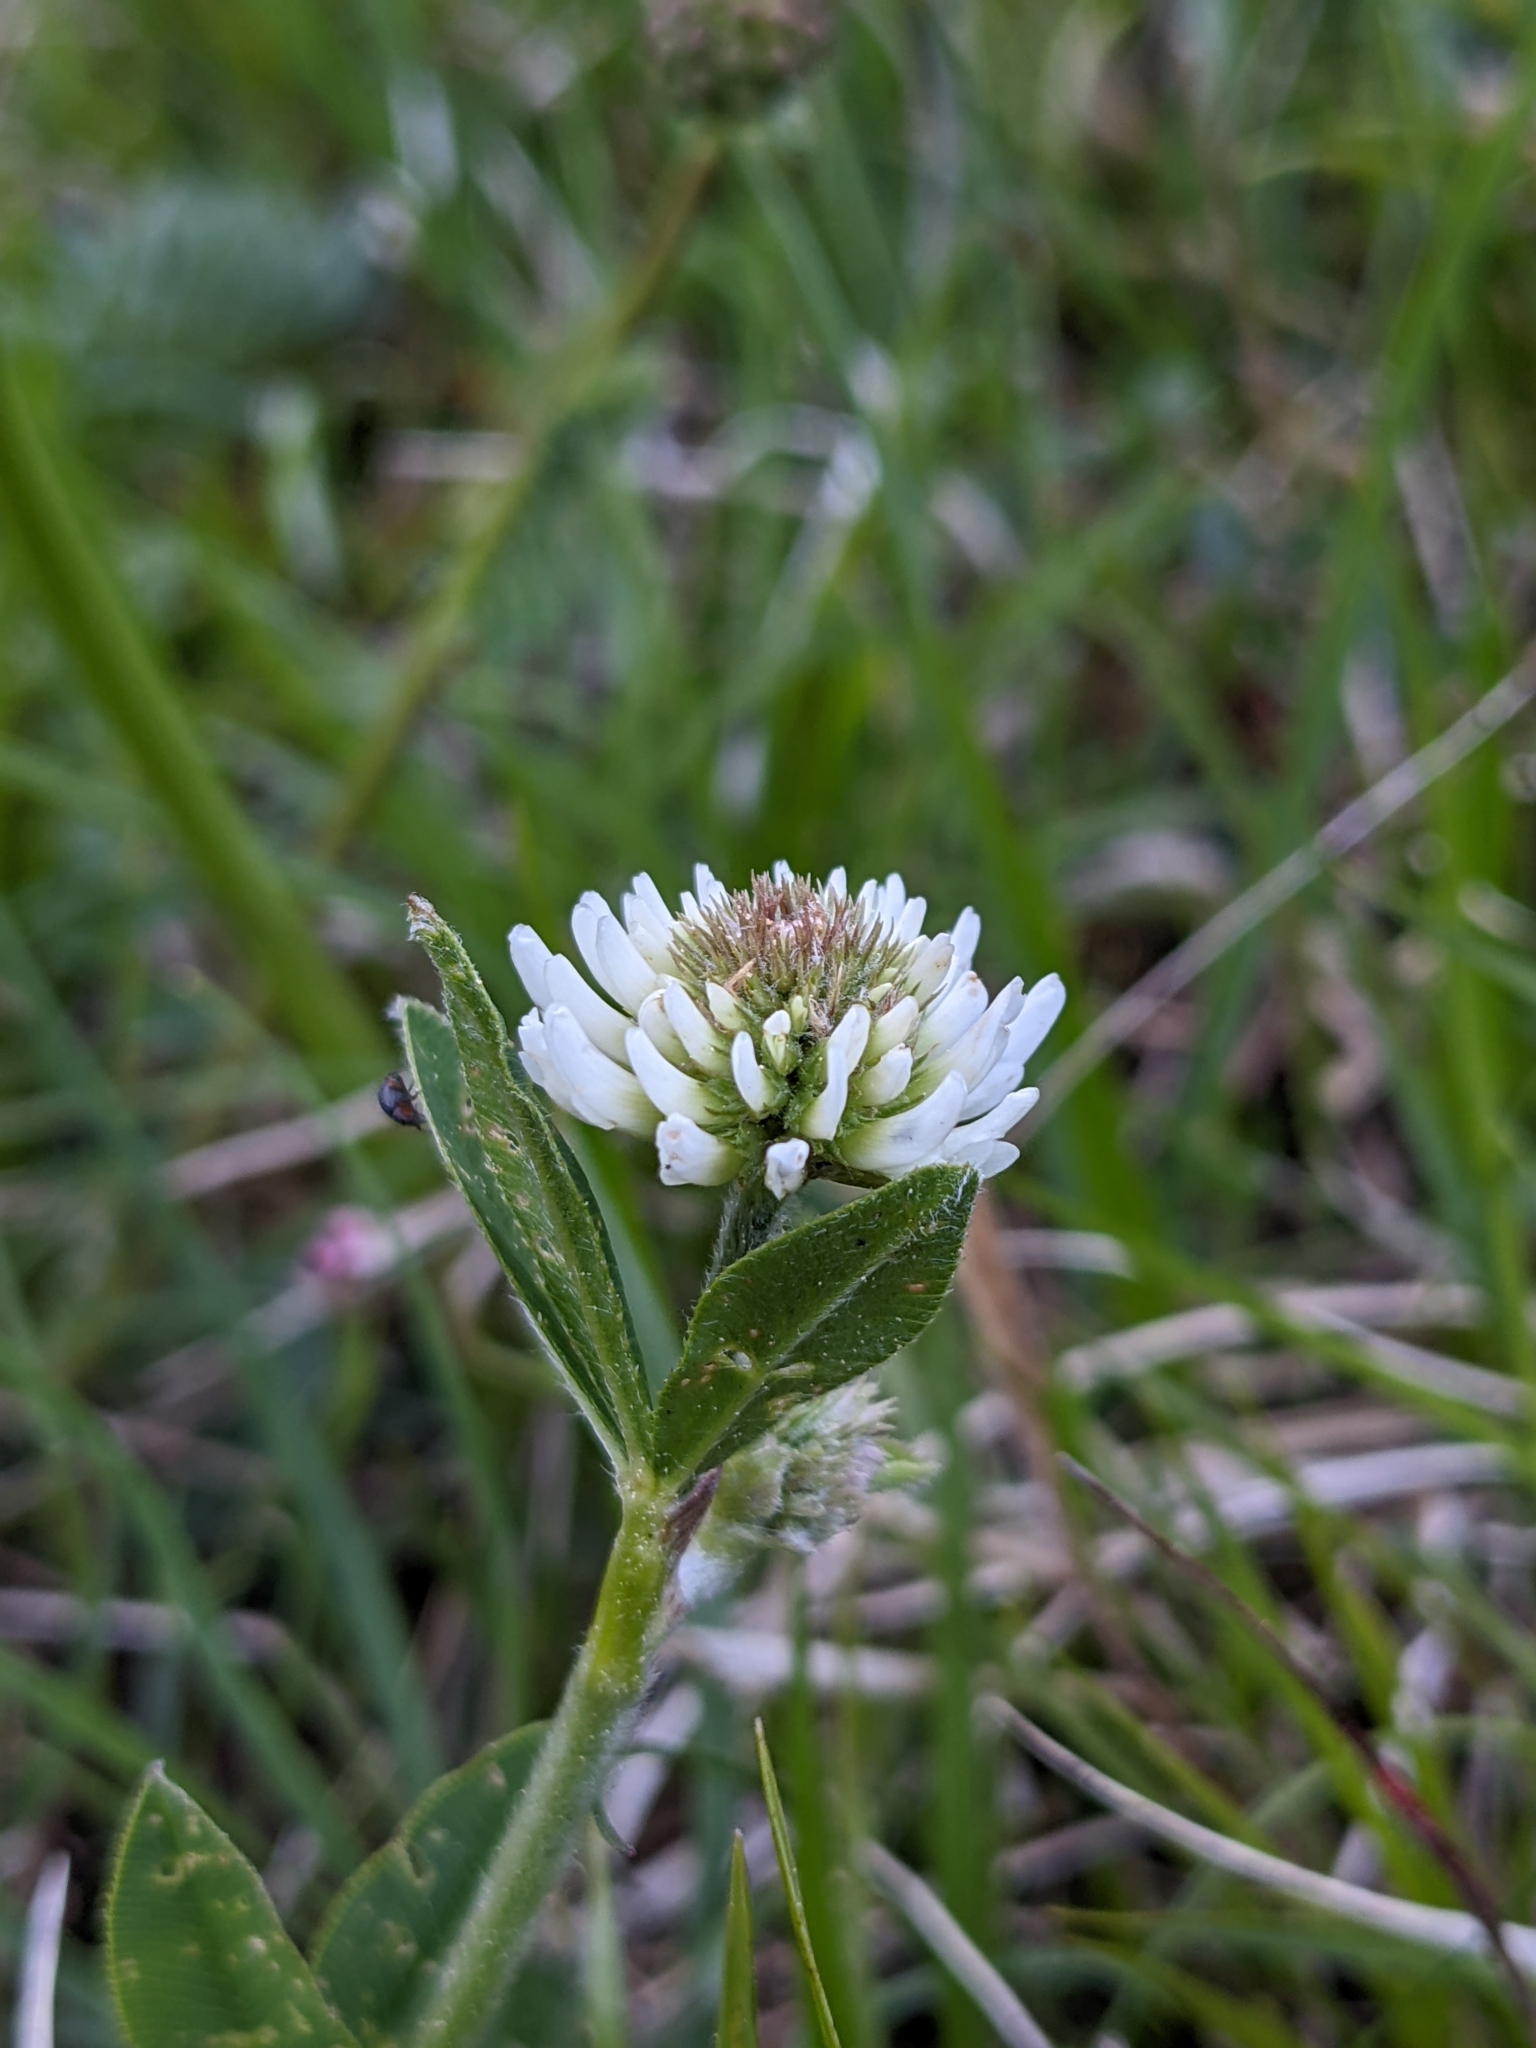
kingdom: Plantae
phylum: Tracheophyta
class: Magnoliopsida
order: Fabales
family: Fabaceae
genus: Trifolium
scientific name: Trifolium montanum
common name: Mountain clover
